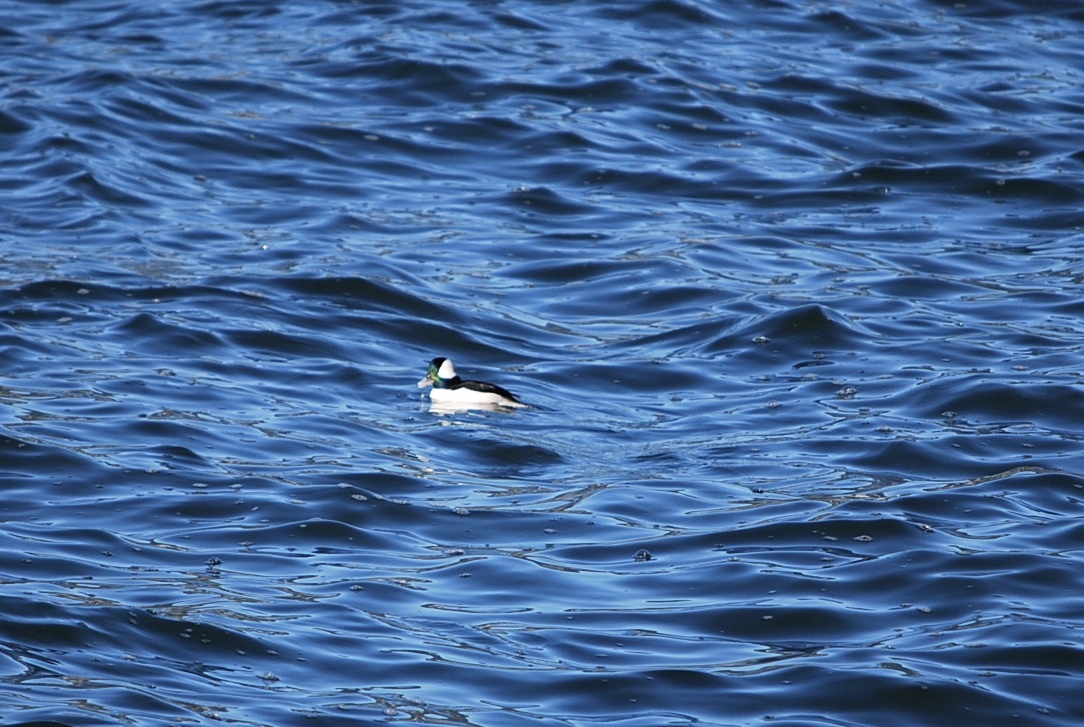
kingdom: Animalia
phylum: Chordata
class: Aves
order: Anseriformes
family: Anatidae
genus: Bucephala
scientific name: Bucephala albeola
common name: Bufflehead
